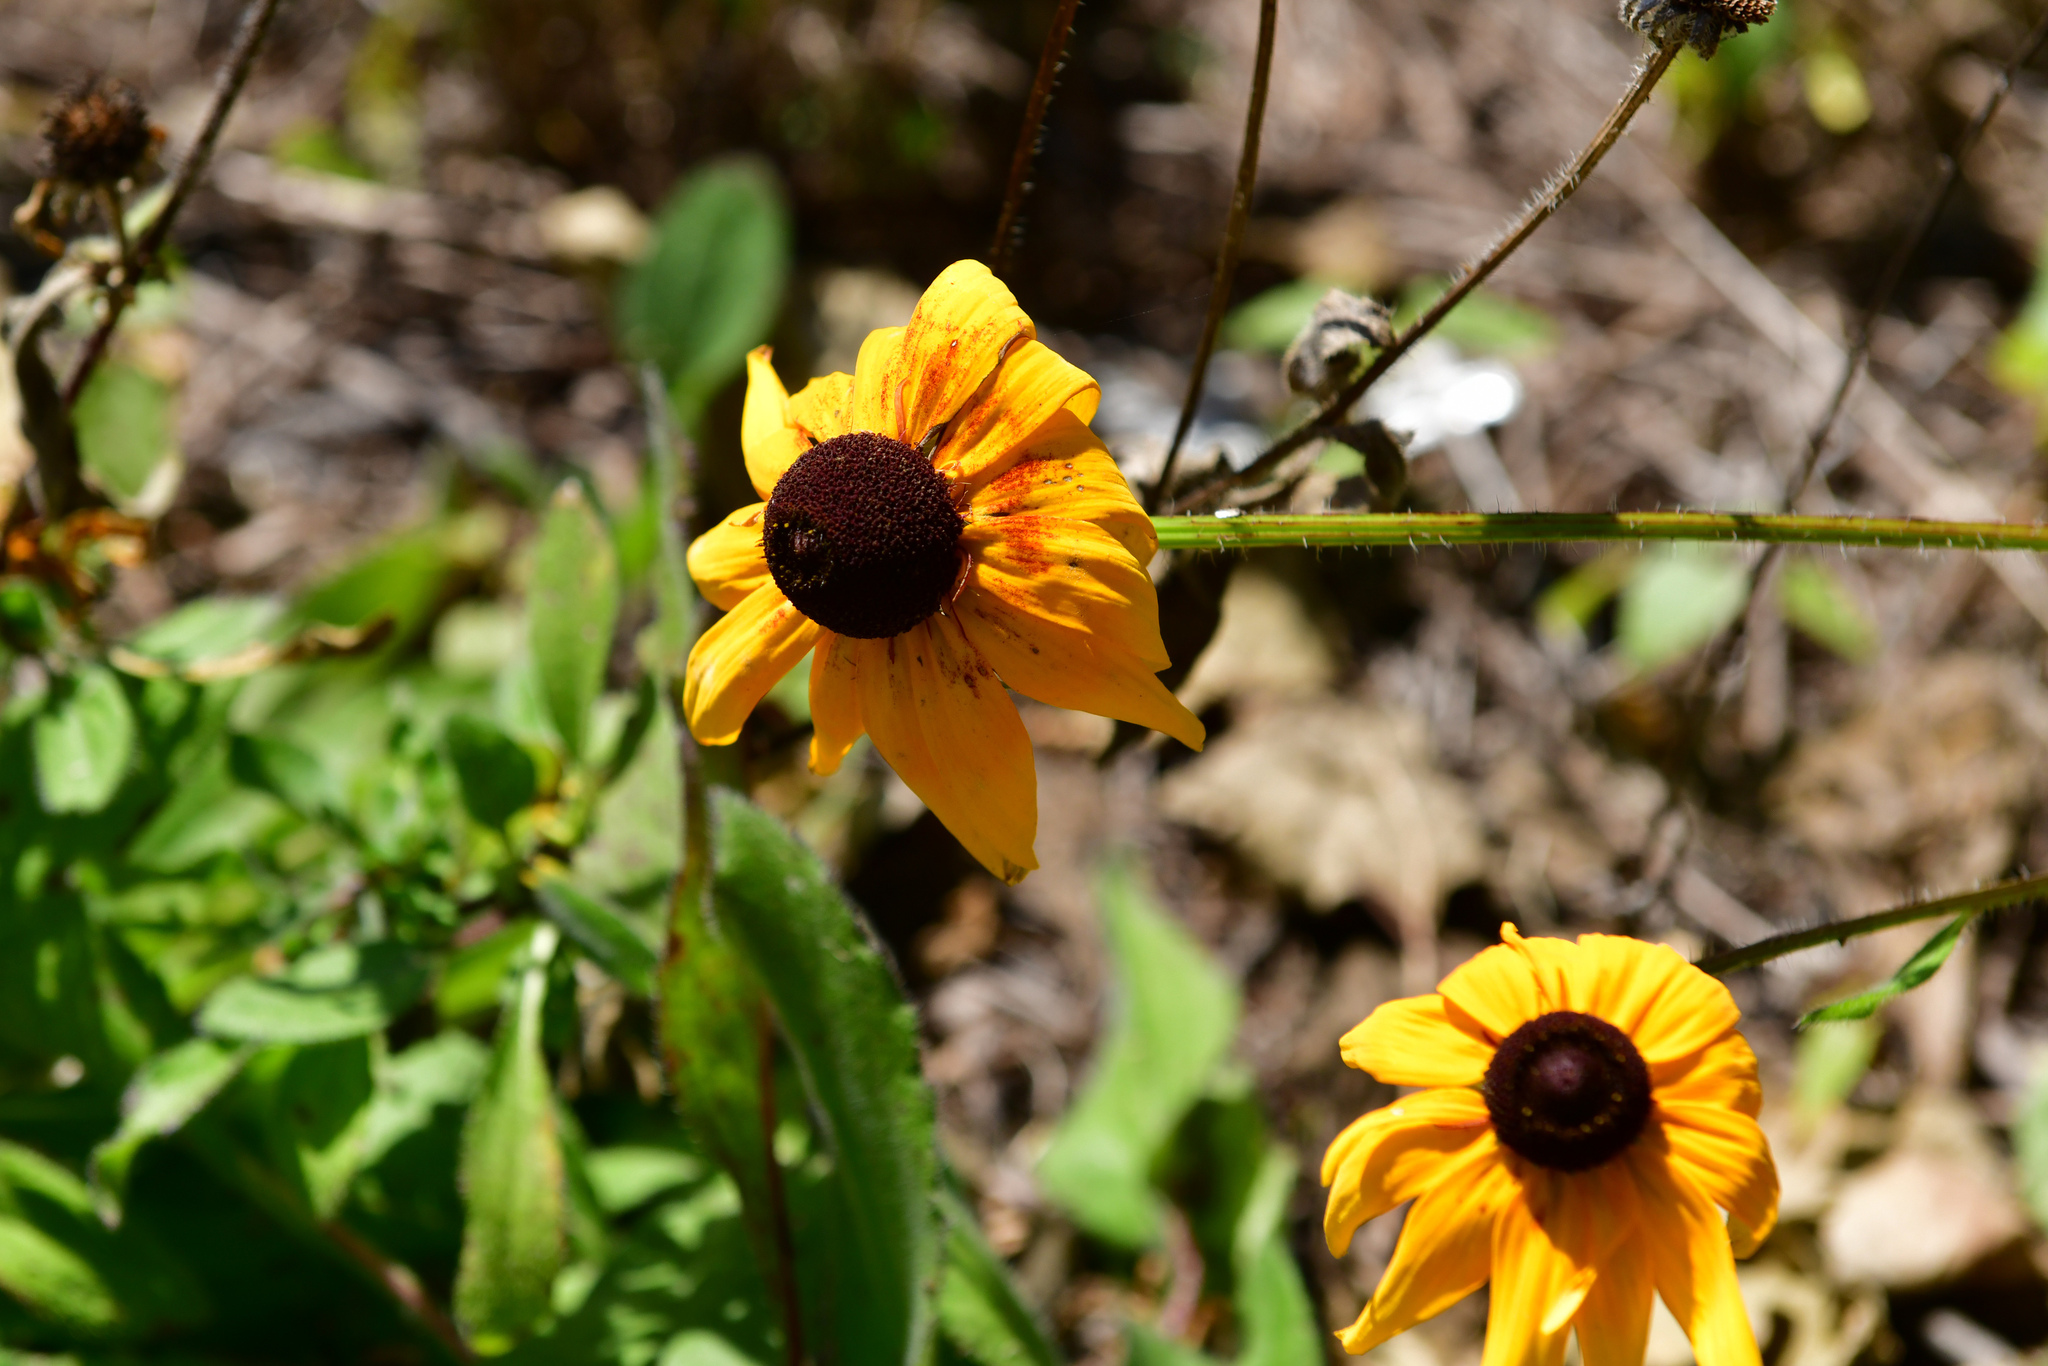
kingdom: Plantae
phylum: Tracheophyta
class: Magnoliopsida
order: Asterales
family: Asteraceae
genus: Rudbeckia
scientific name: Rudbeckia hirta
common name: Black-eyed-susan
